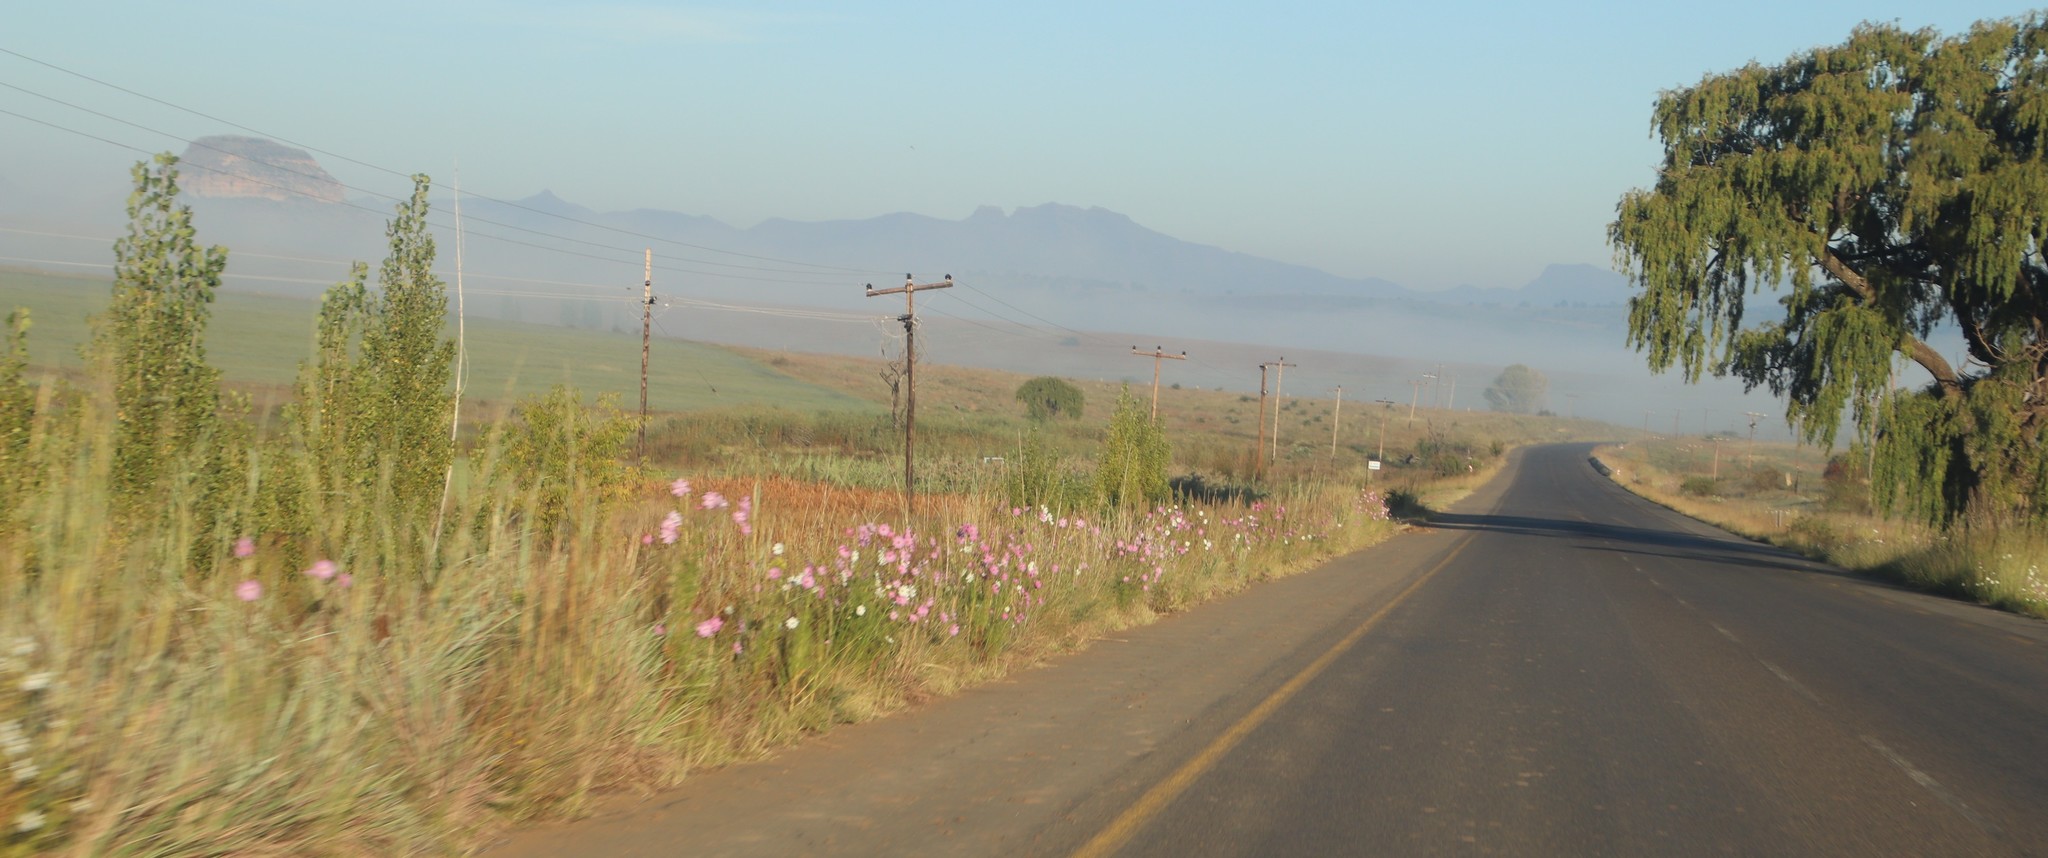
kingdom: Plantae
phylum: Tracheophyta
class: Magnoliopsida
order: Asterales
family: Asteraceae
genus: Cosmos
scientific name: Cosmos bipinnatus
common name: Garden cosmos
